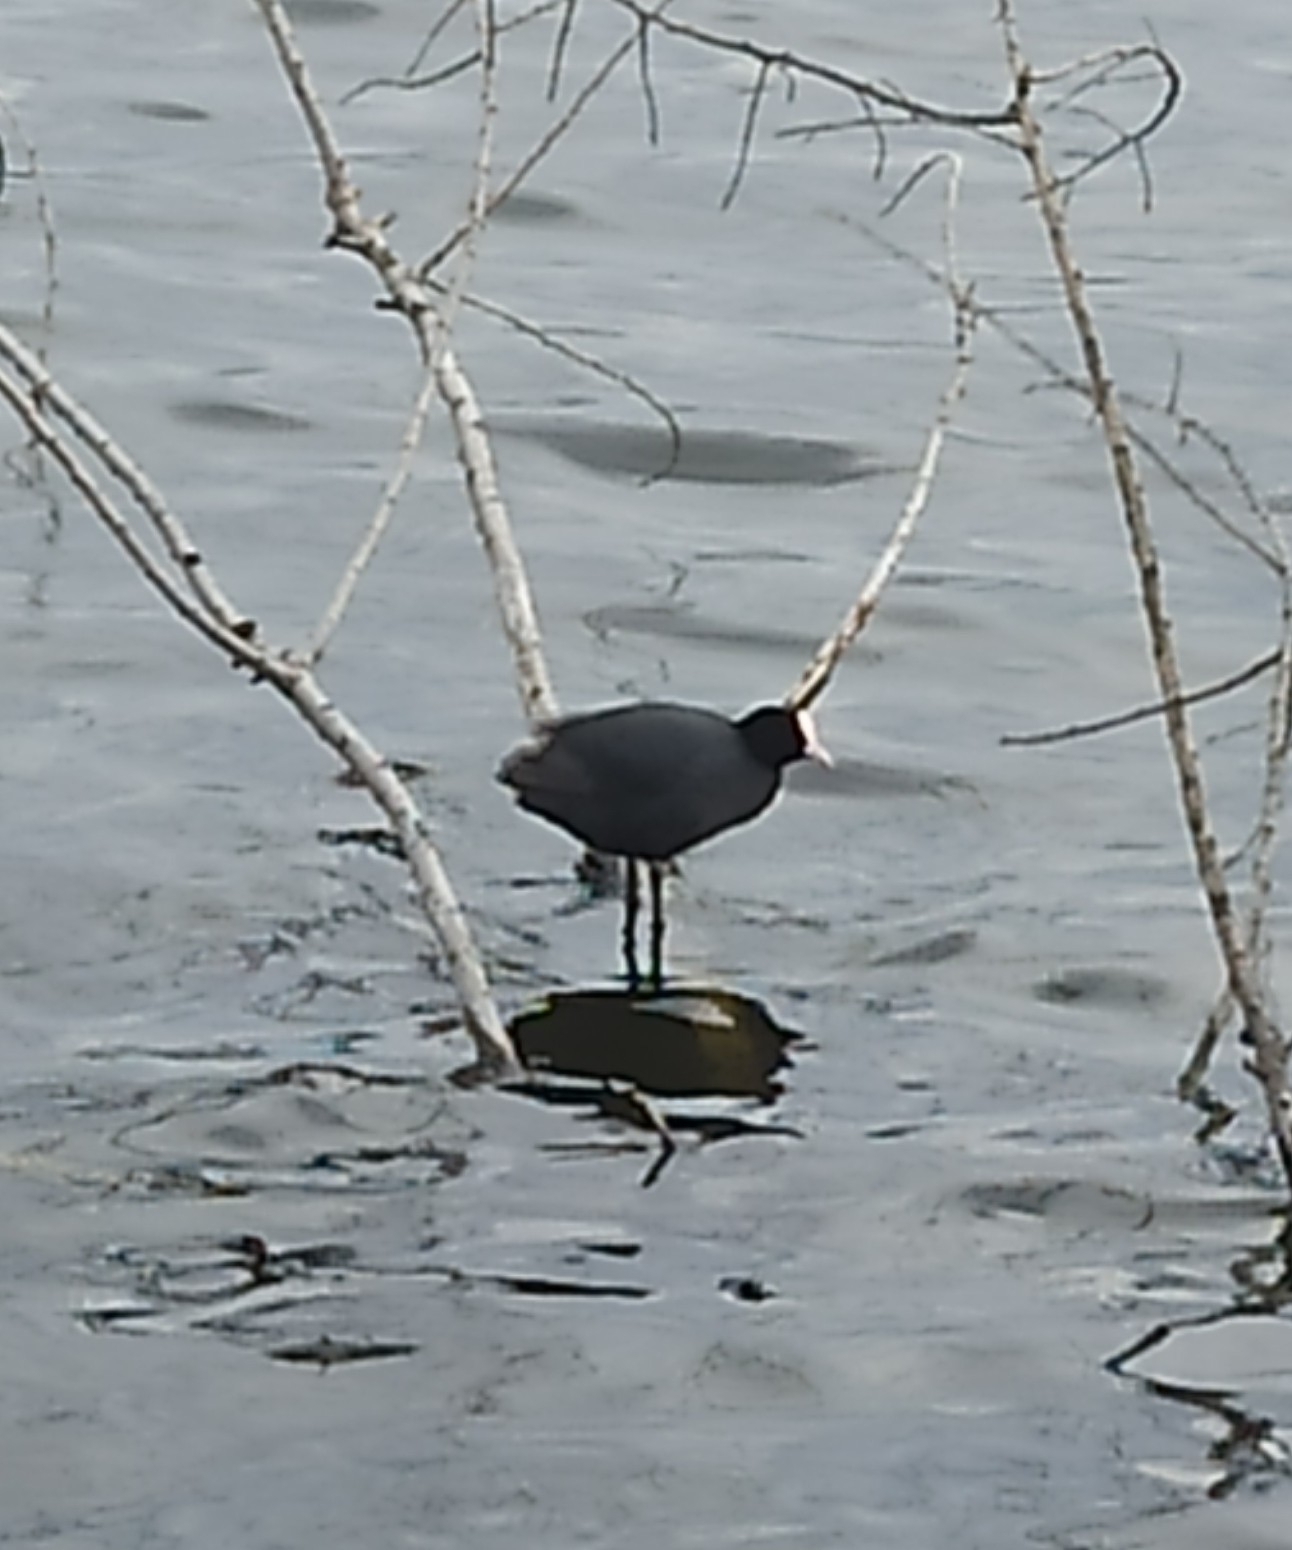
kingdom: Animalia
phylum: Chordata
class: Aves
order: Gruiformes
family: Rallidae
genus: Fulica
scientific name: Fulica atra
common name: Eurasian coot
